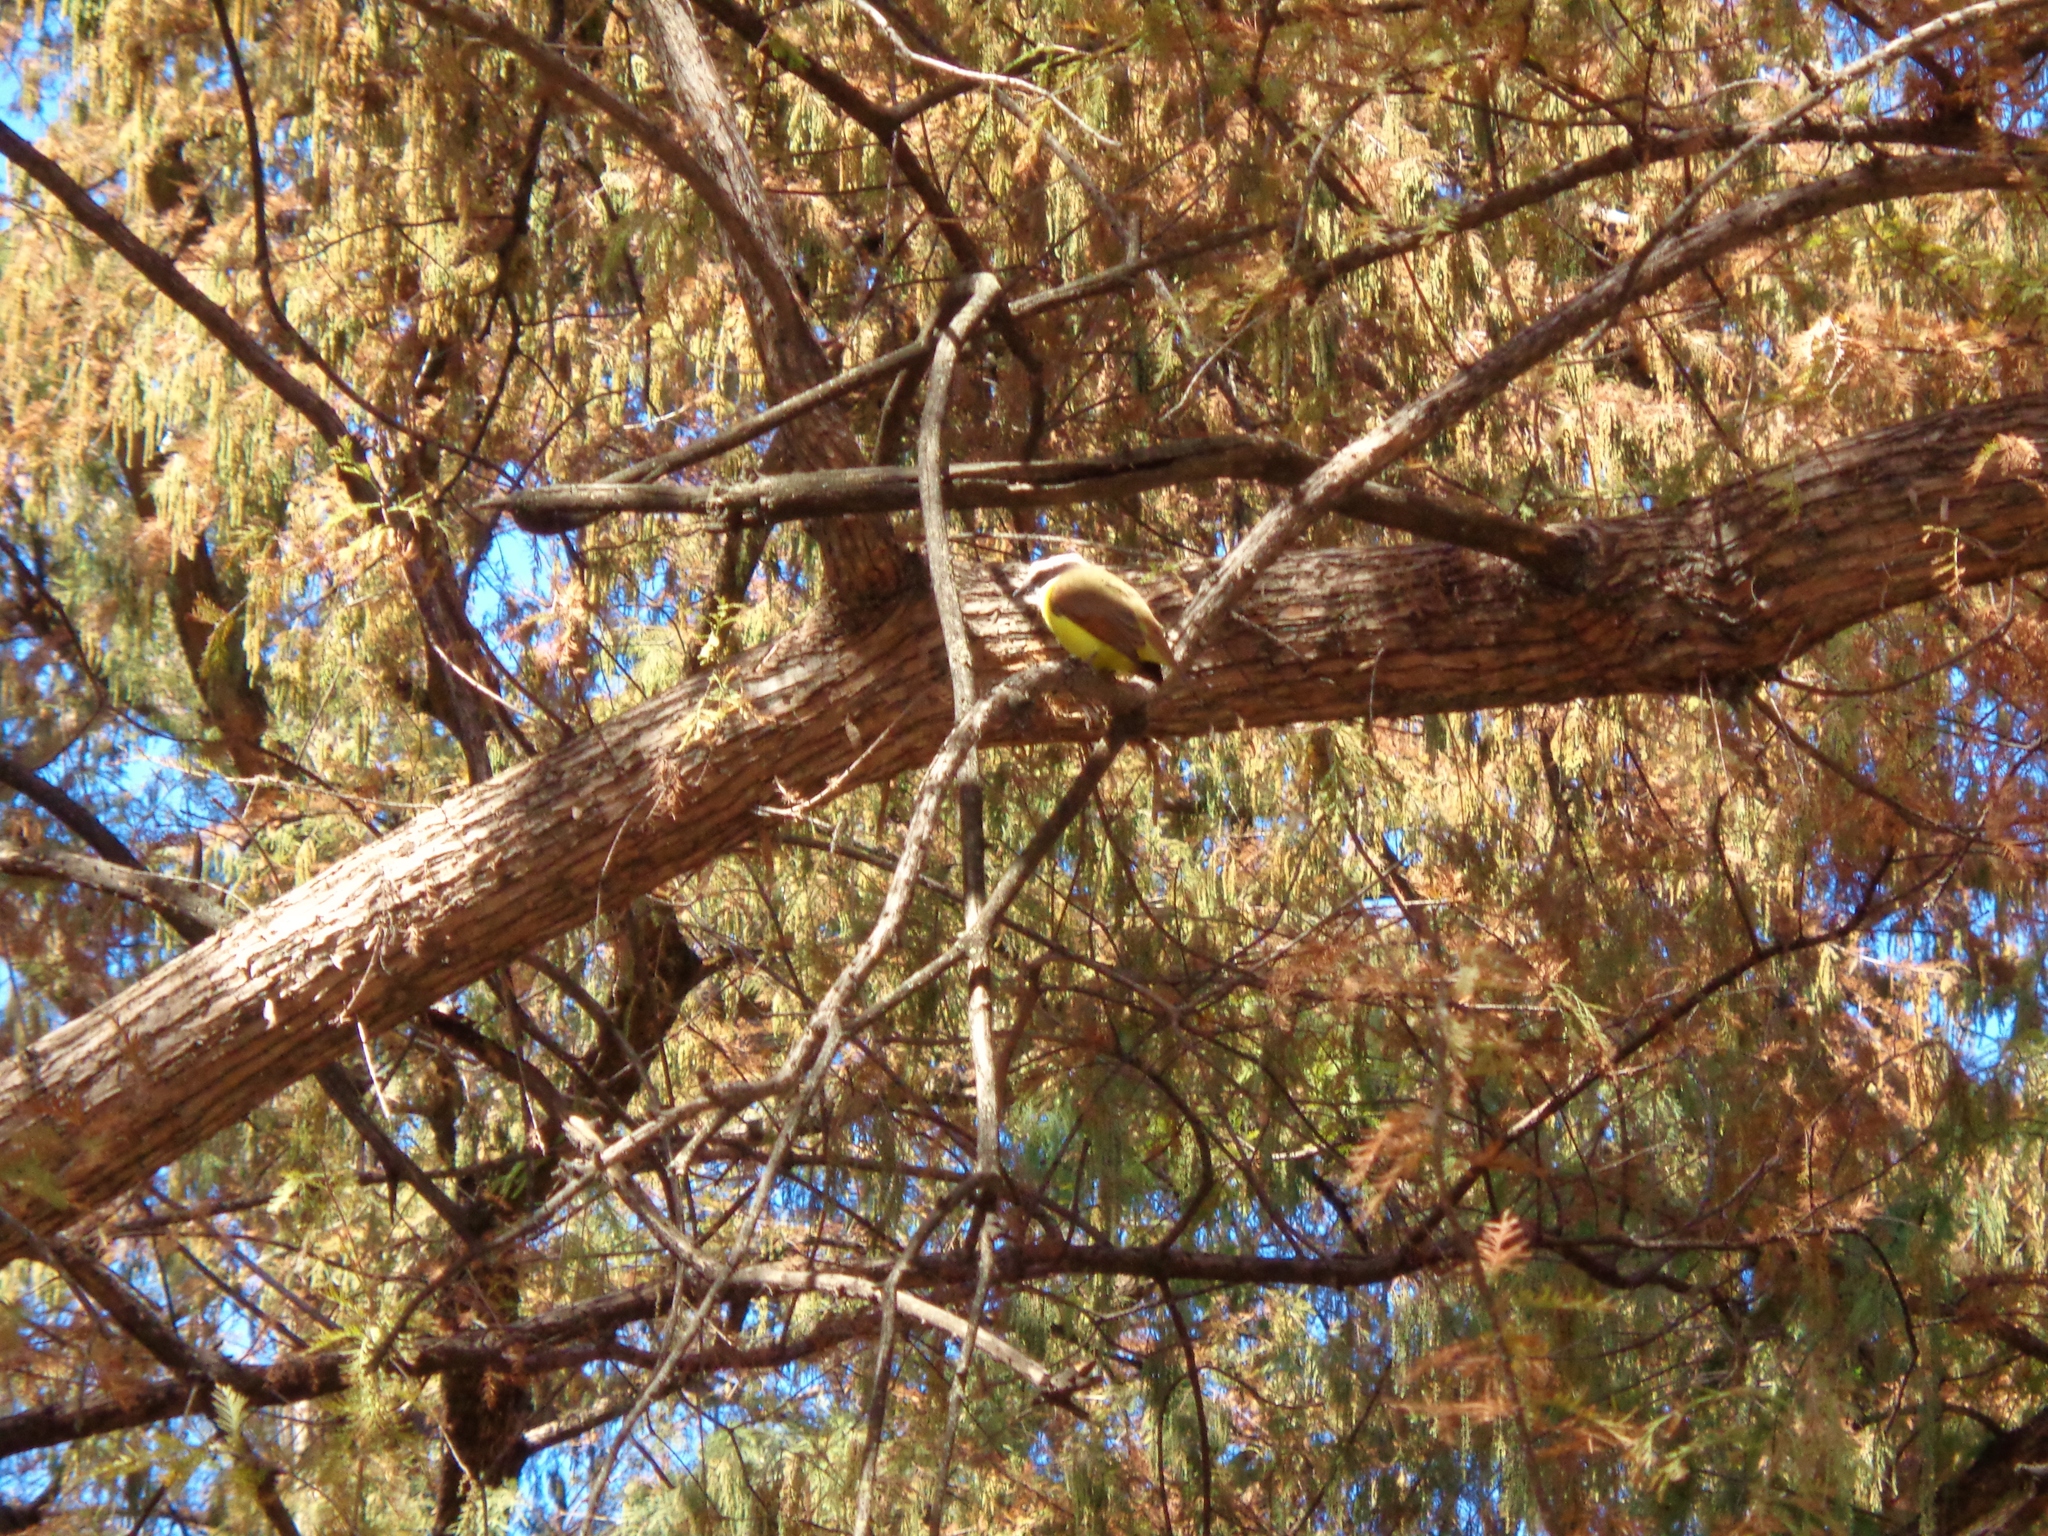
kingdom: Animalia
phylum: Chordata
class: Aves
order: Passeriformes
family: Tyrannidae
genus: Pitangus
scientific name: Pitangus sulphuratus
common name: Great kiskadee
